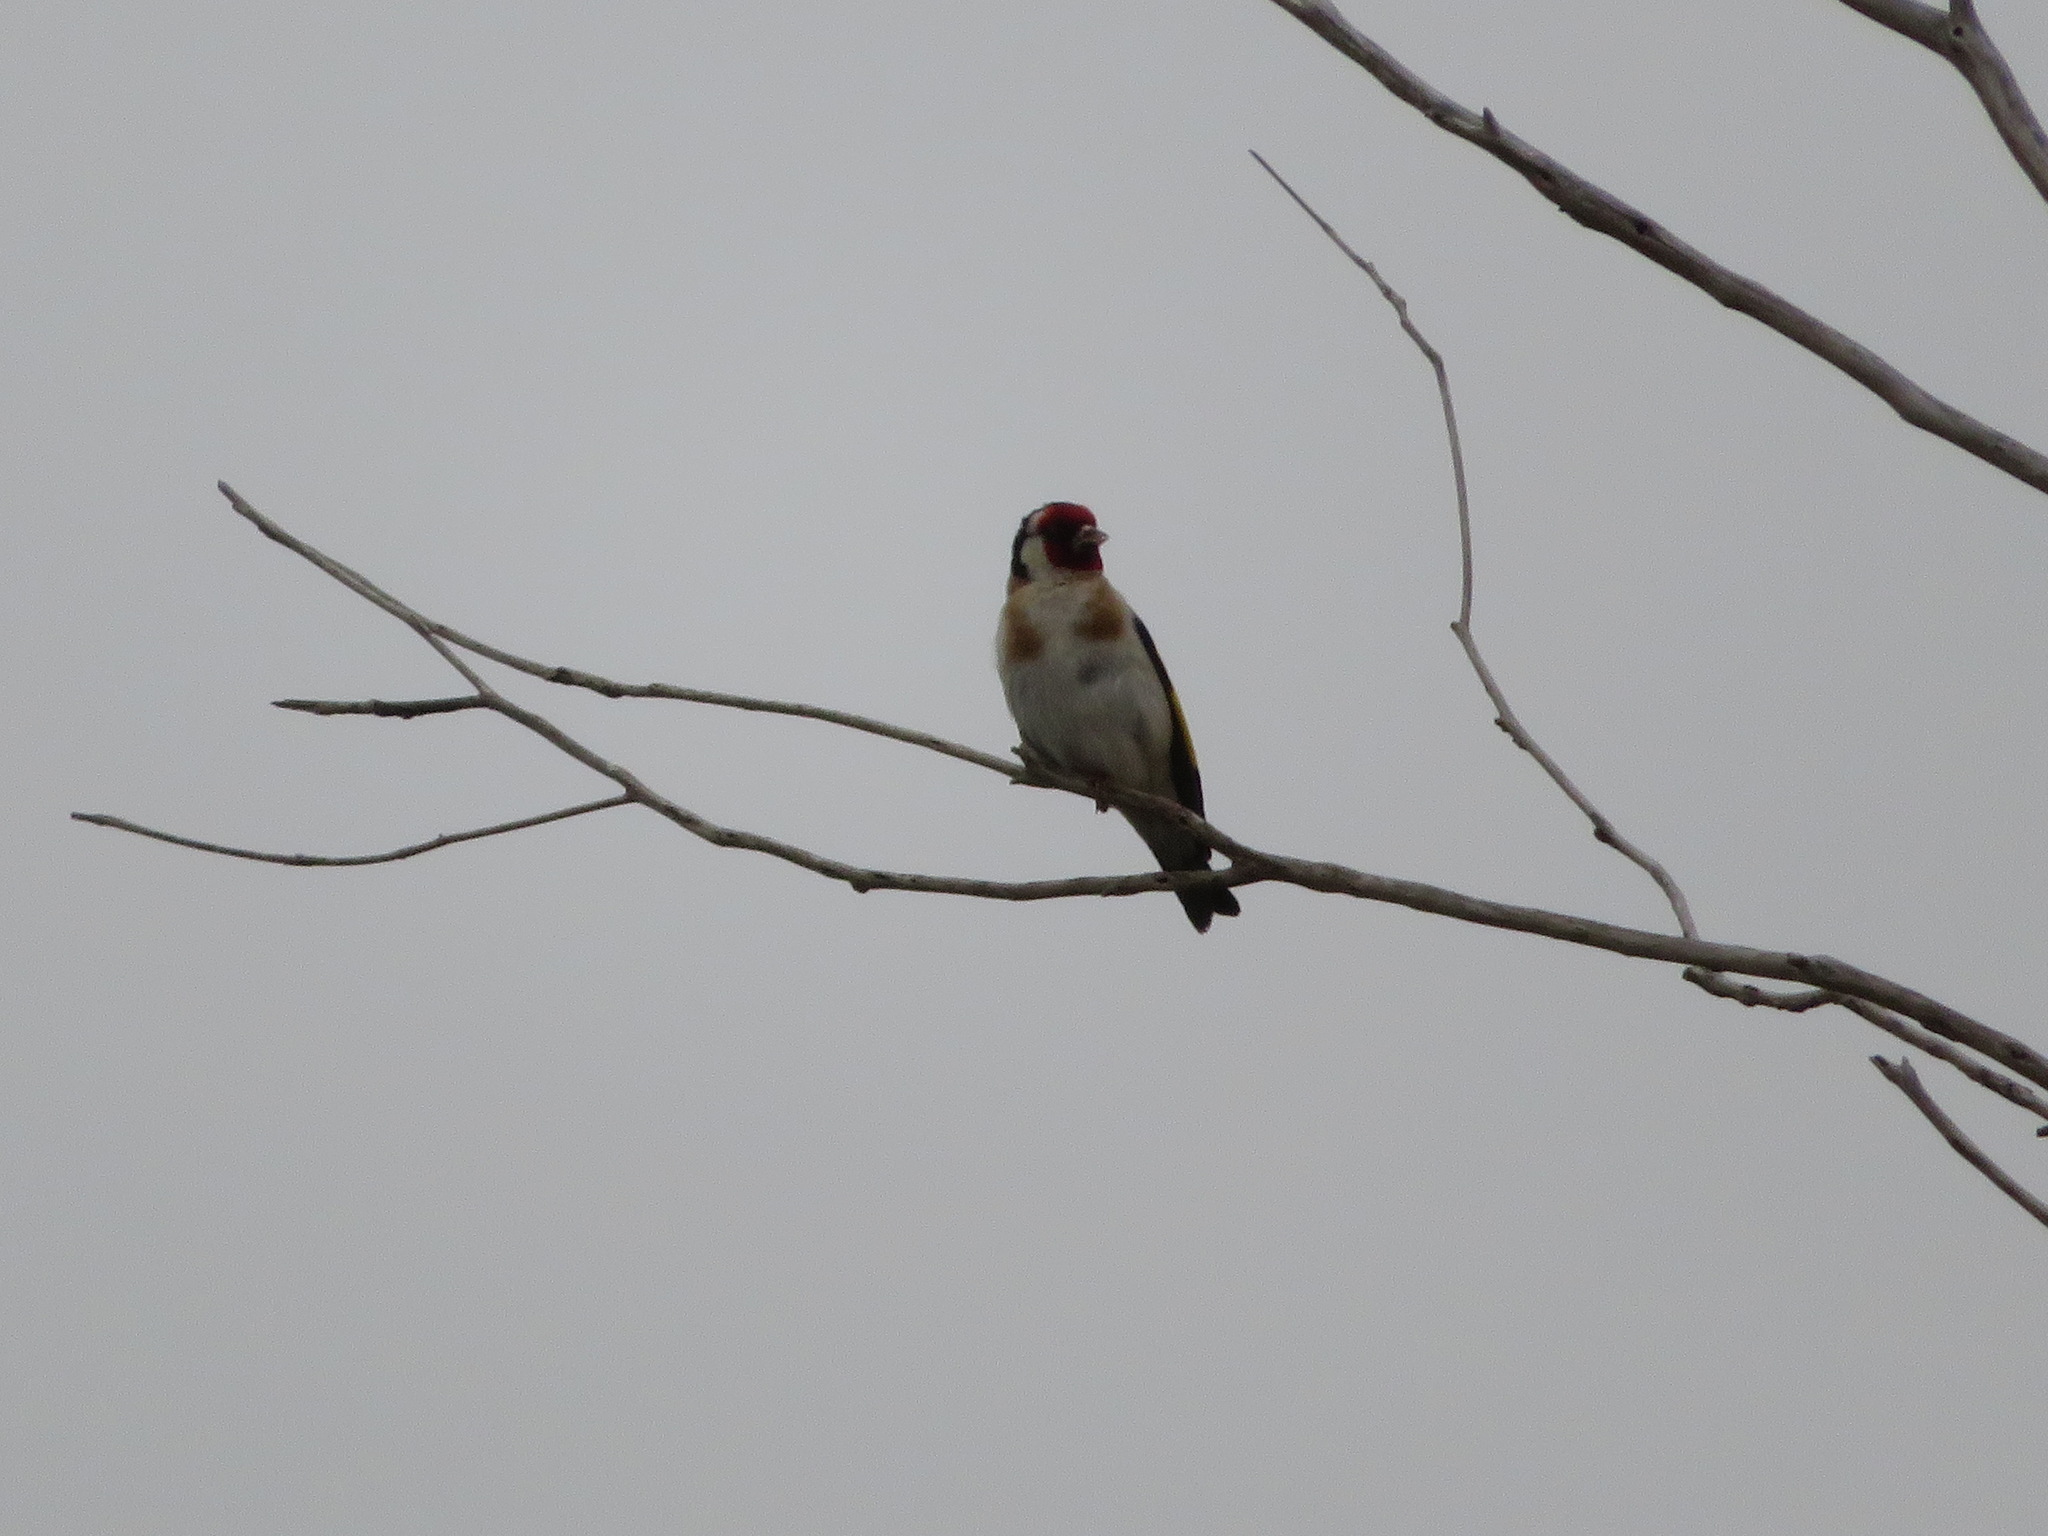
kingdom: Animalia
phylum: Chordata
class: Aves
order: Passeriformes
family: Fringillidae
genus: Carduelis
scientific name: Carduelis carduelis
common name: European goldfinch
